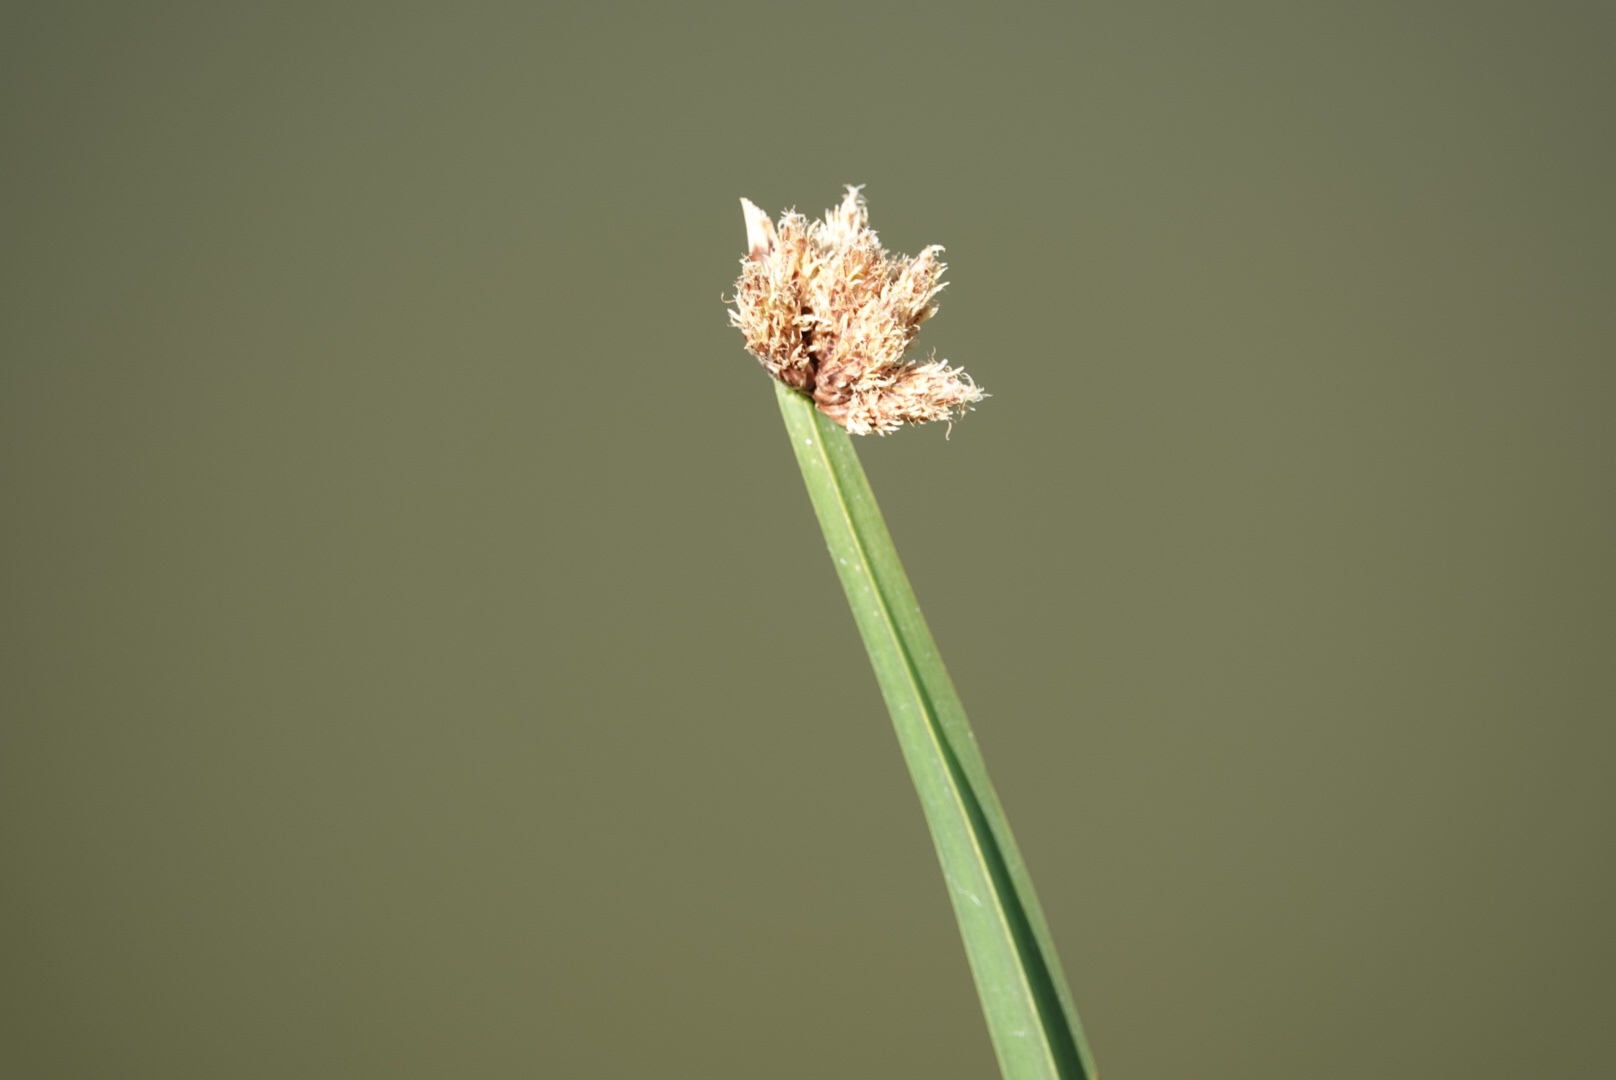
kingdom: Plantae
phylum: Tracheophyta
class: Liliopsida
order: Poales
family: Cyperaceae
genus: Schoenoplectus
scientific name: Schoenoplectus americanus
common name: American three-square bulrush
